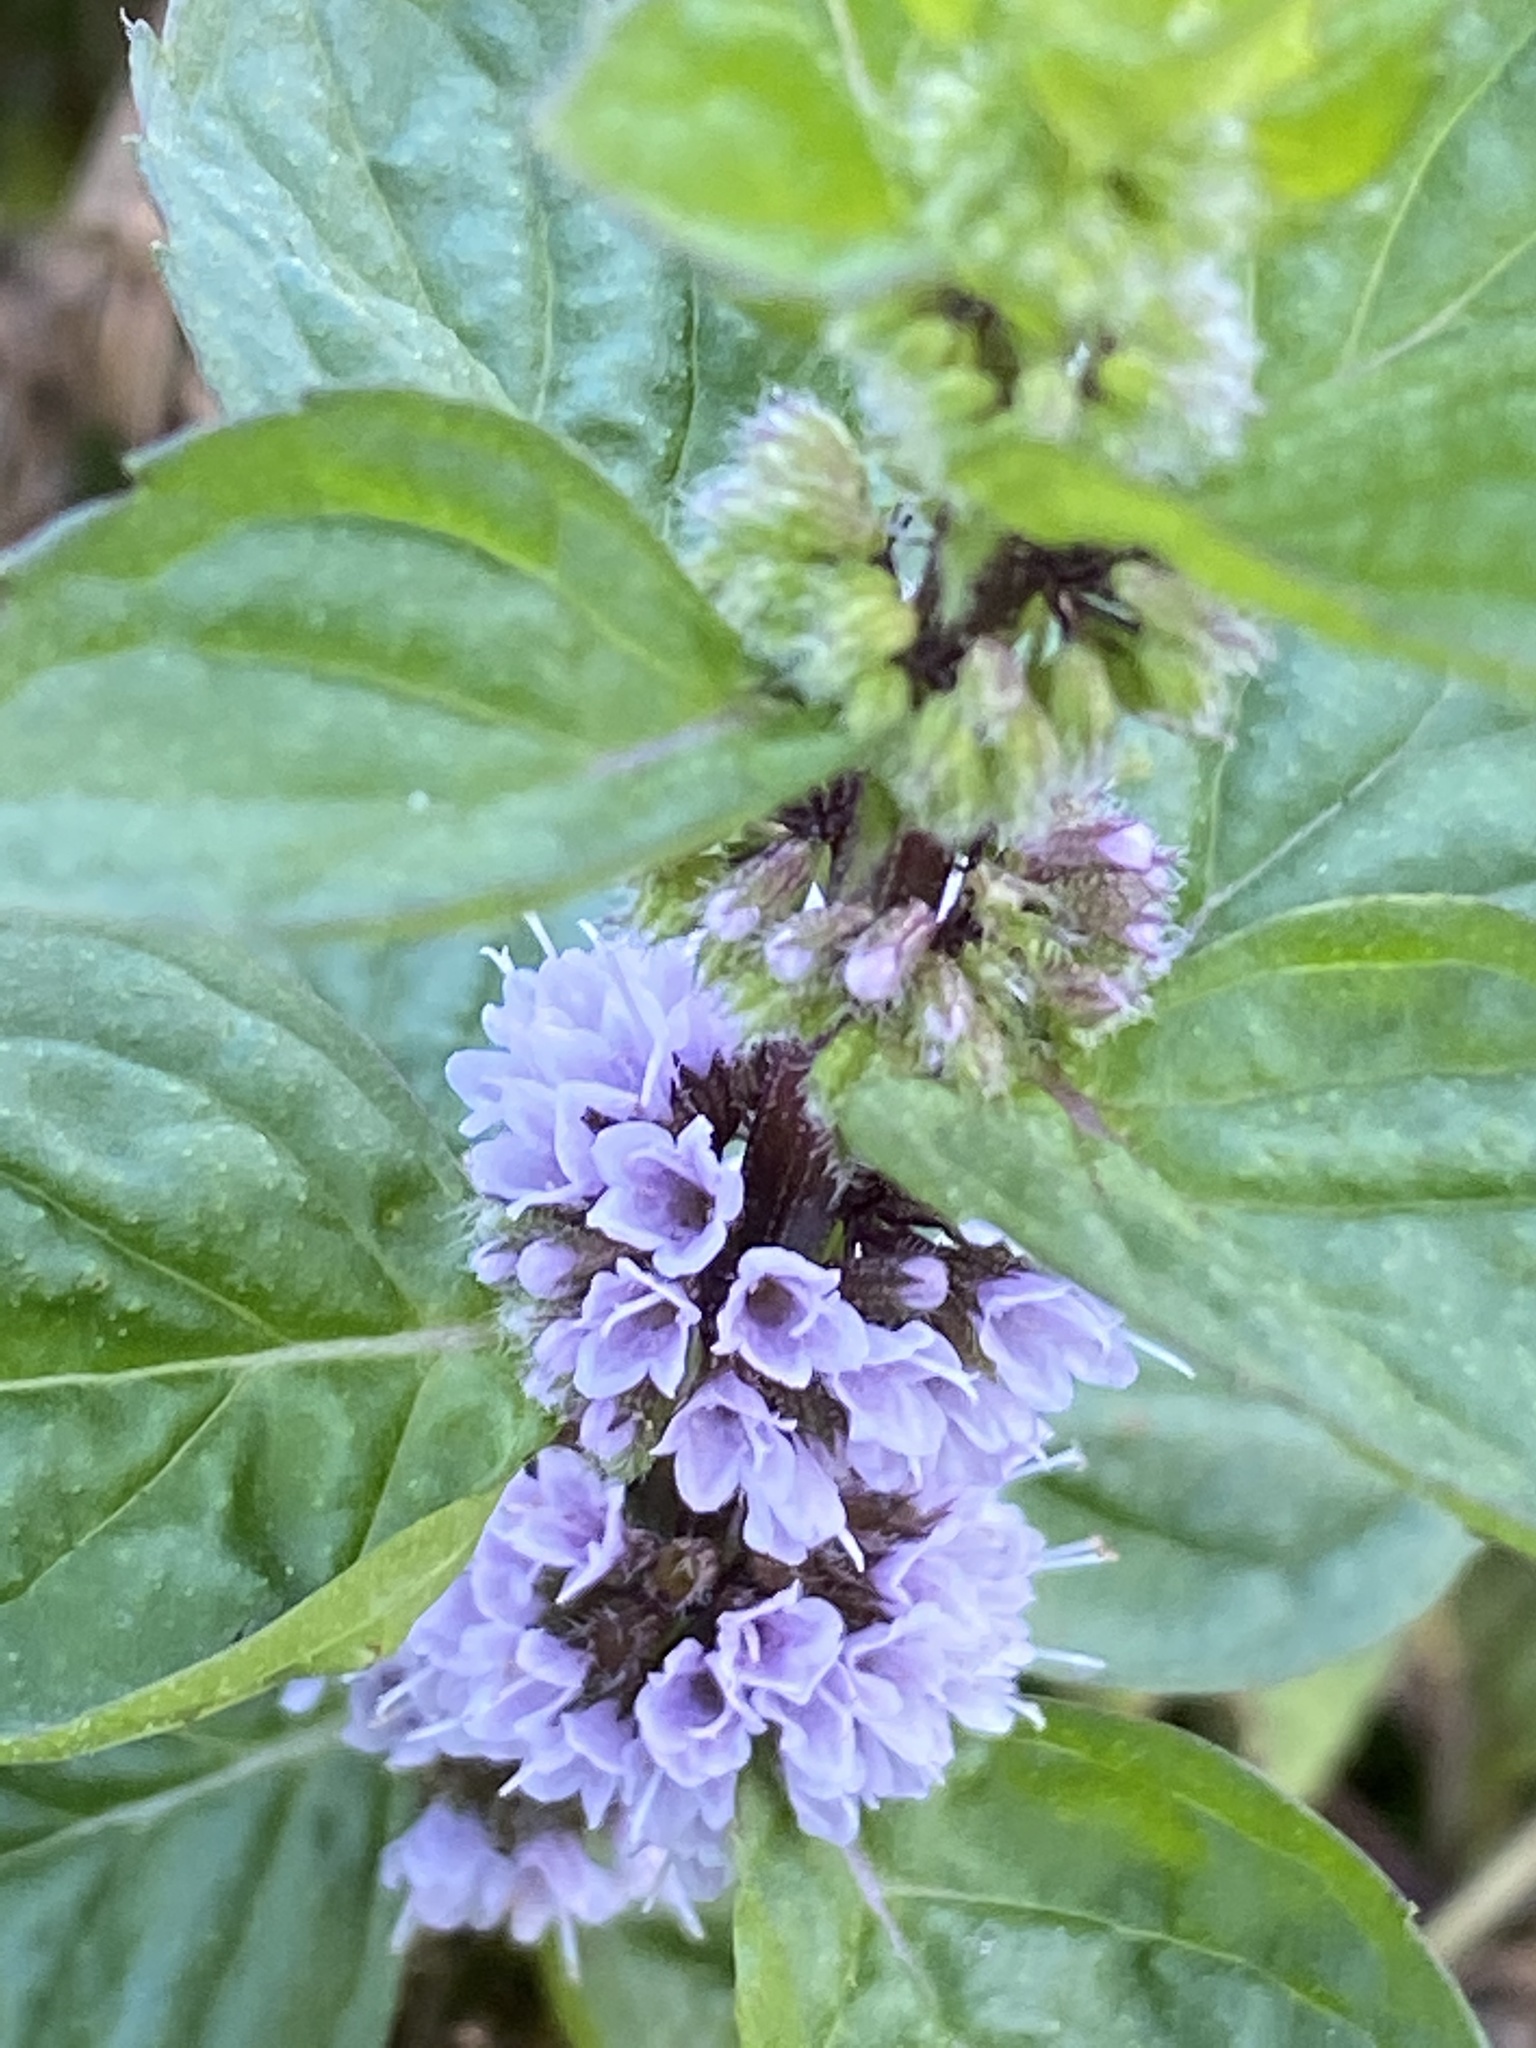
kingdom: Plantae
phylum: Tracheophyta
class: Magnoliopsida
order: Lamiales
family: Lamiaceae
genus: Mentha
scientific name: Mentha arvensis
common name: Corn mint
